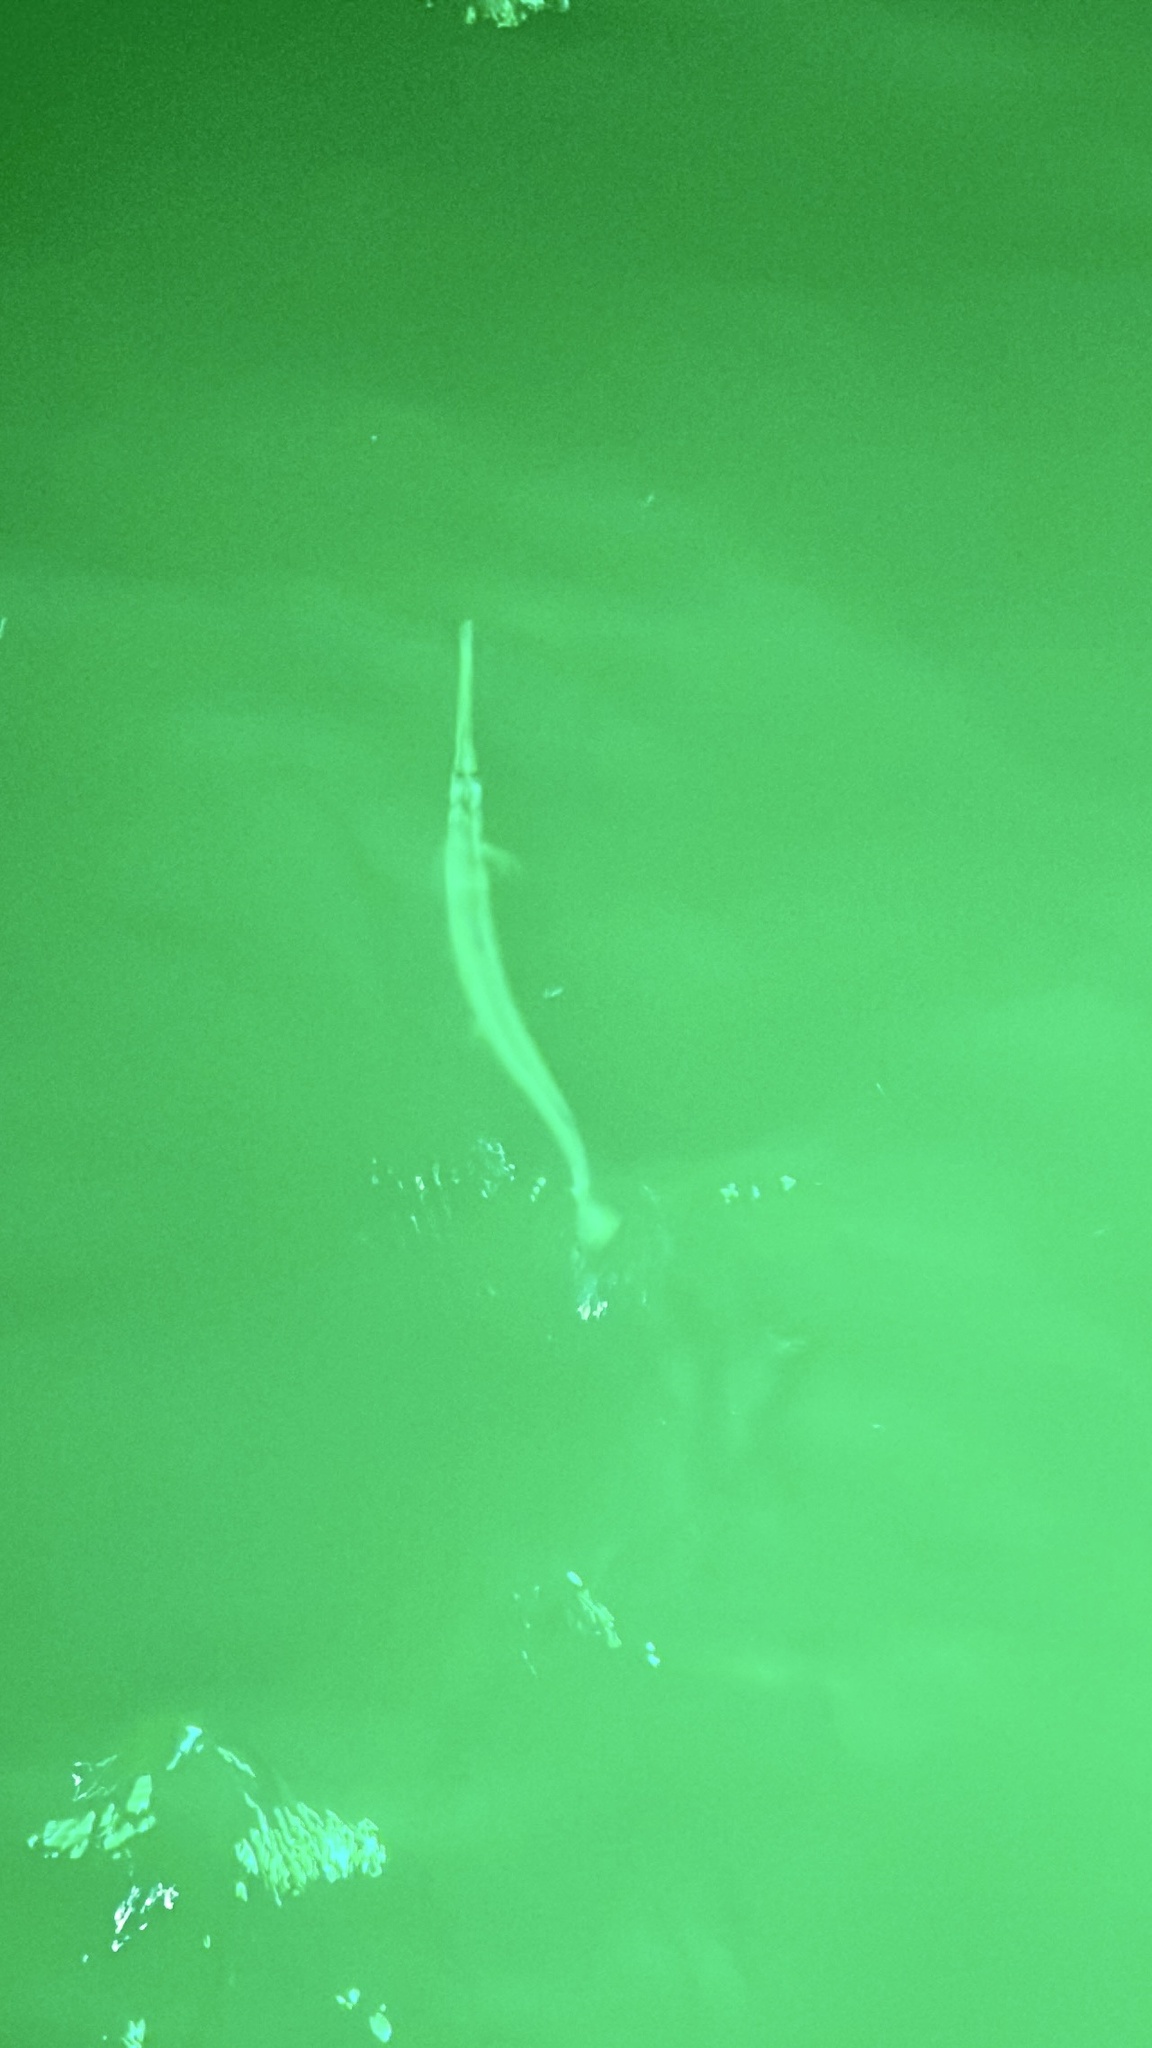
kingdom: Animalia
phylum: Chordata
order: Beloniformes
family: Belonidae
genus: Strongylura
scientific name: Strongylura marina
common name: Atlantic needlefish
